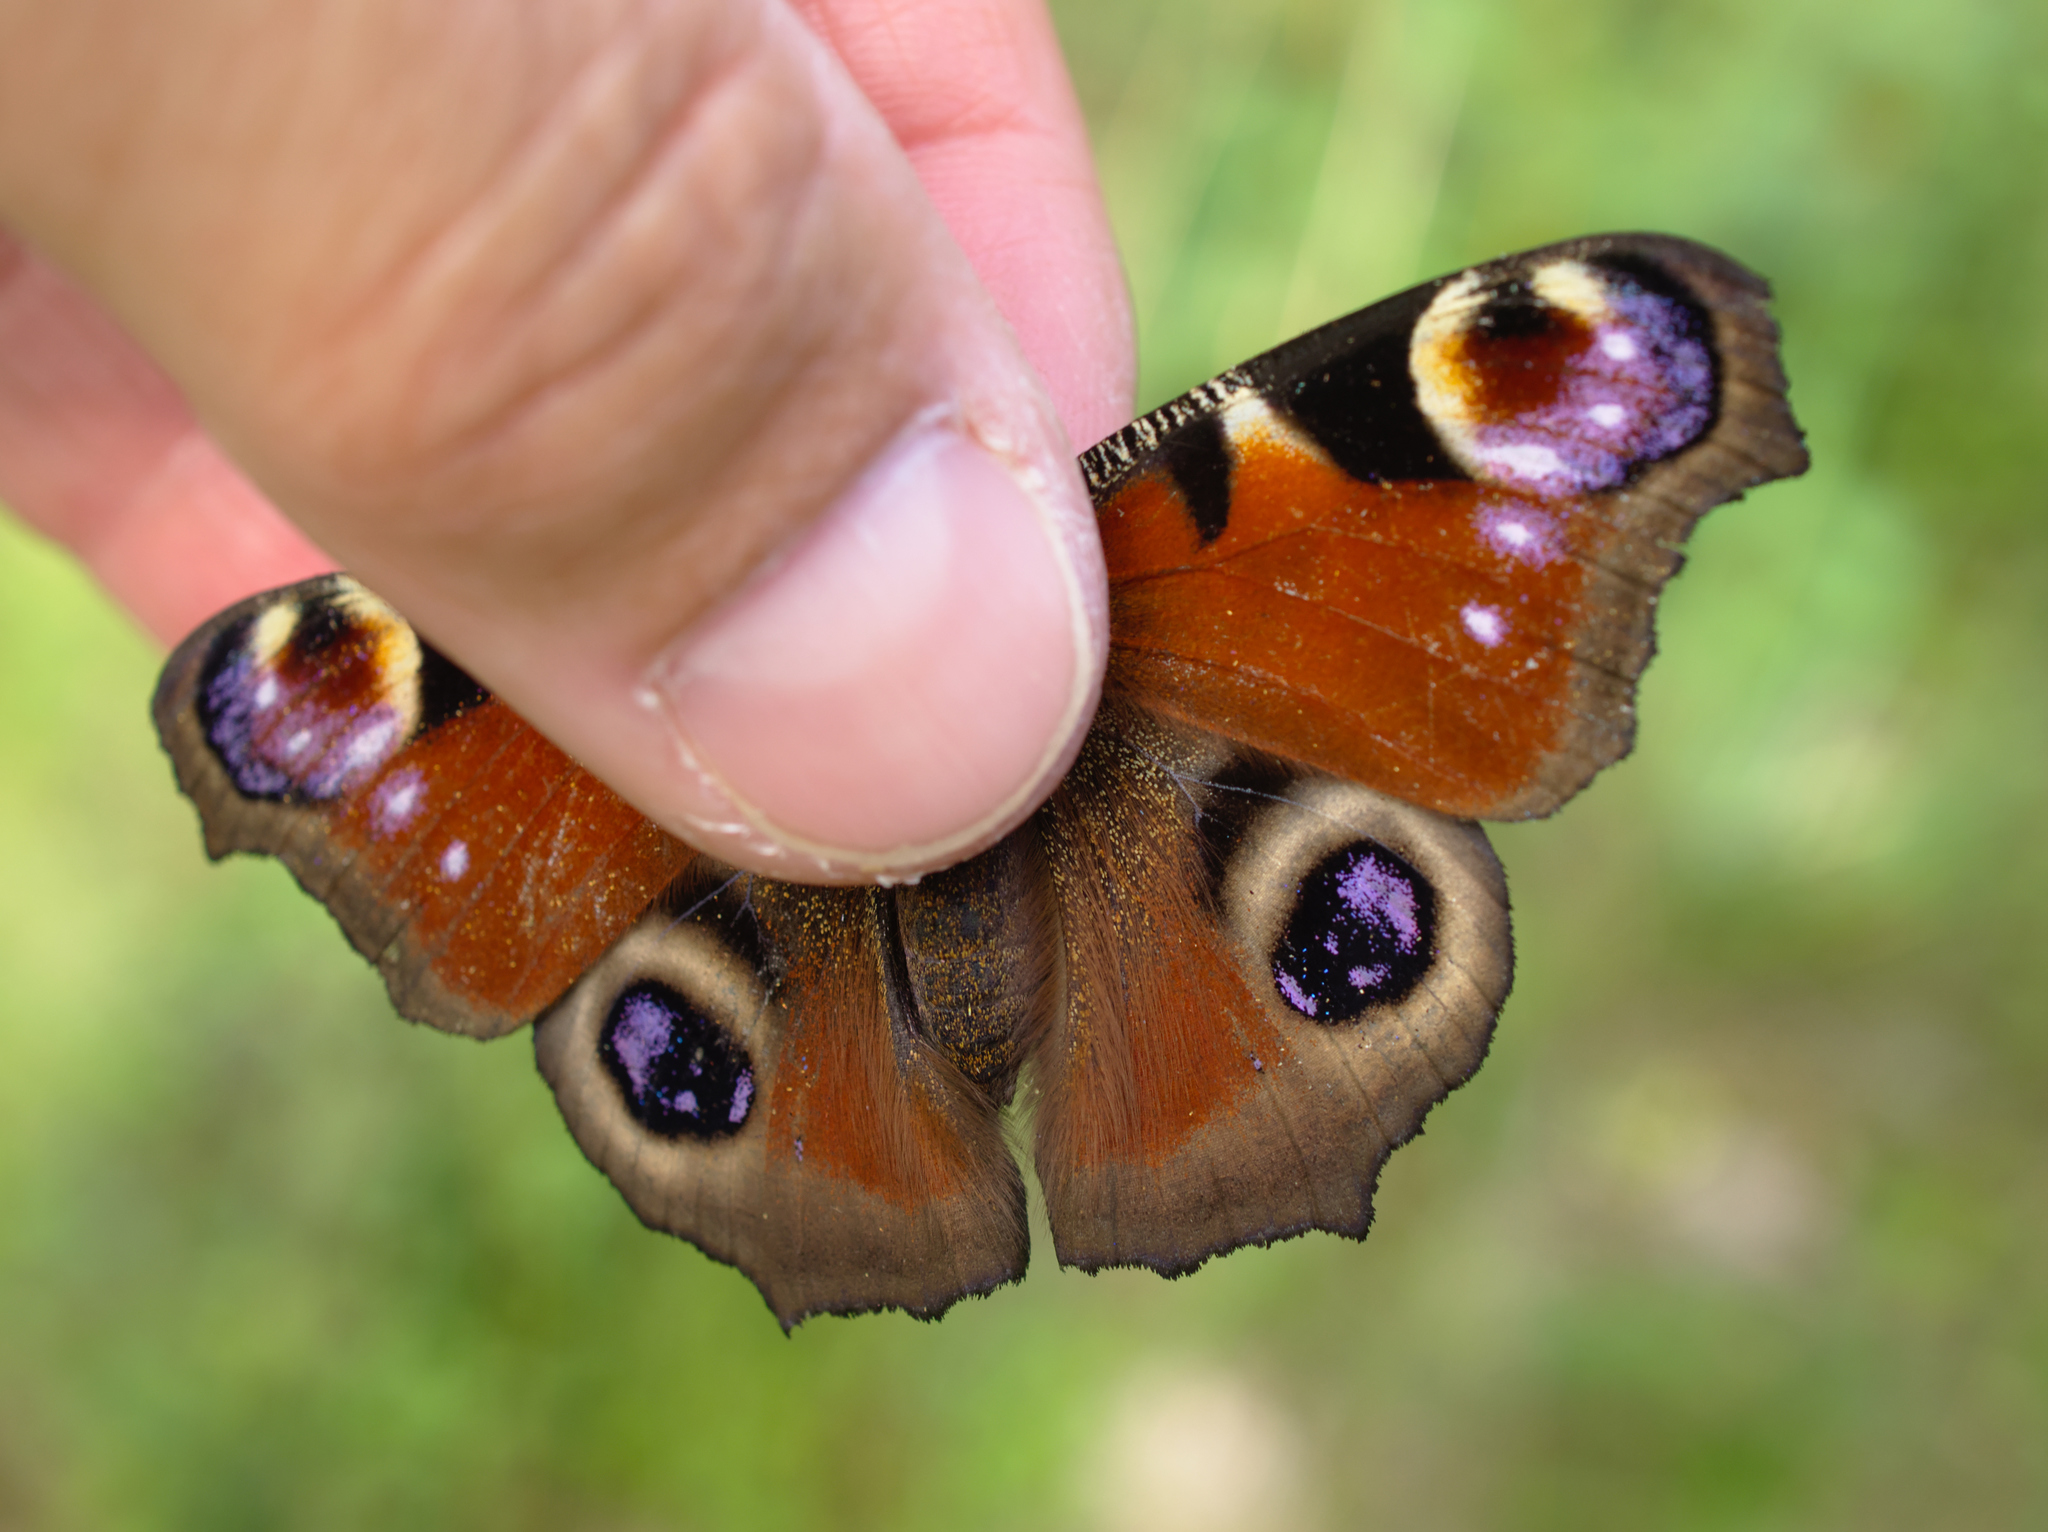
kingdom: Animalia
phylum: Arthropoda
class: Insecta
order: Lepidoptera
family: Nymphalidae
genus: Aglais
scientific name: Aglais io
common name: Peacock
